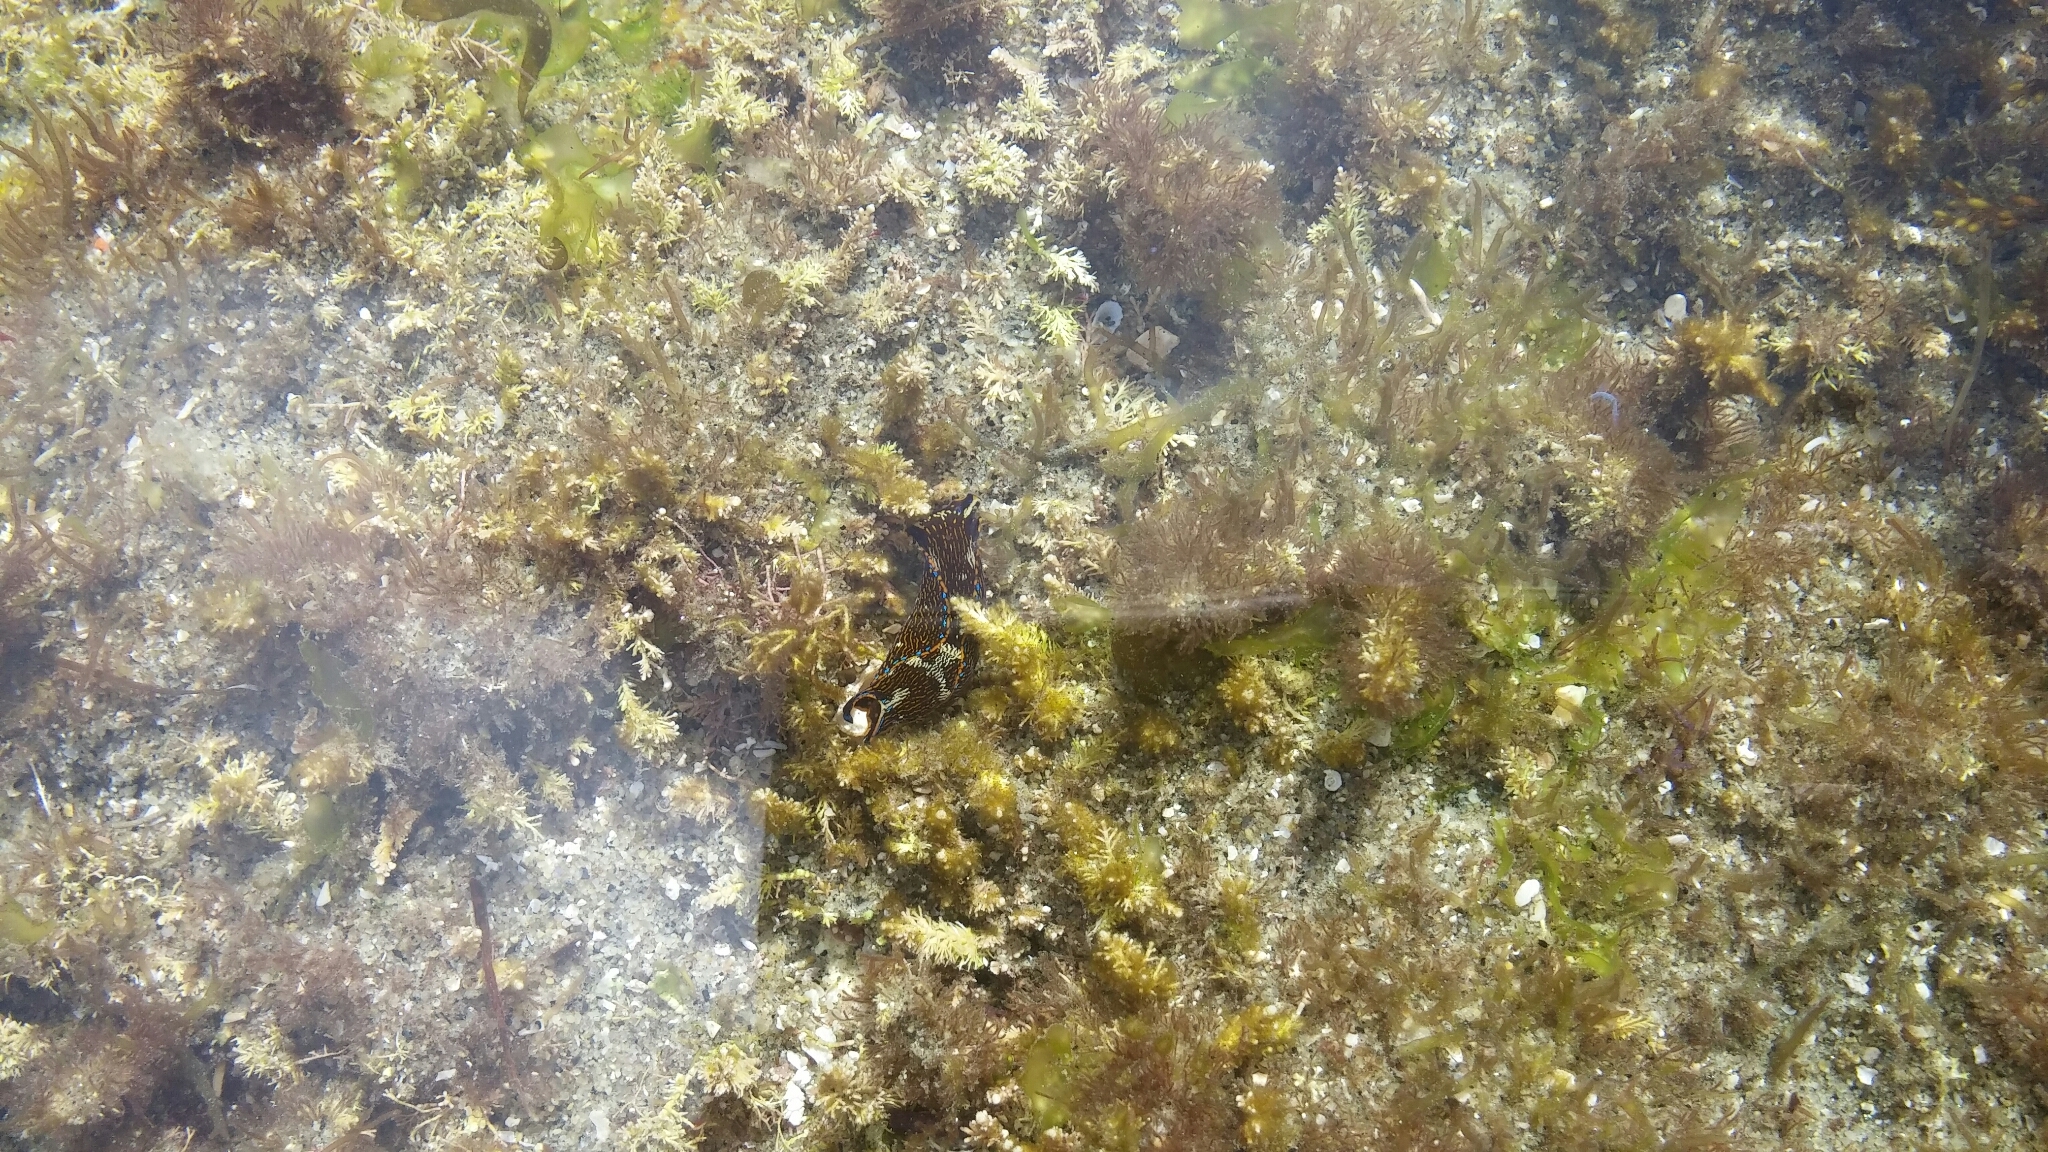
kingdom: Animalia
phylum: Mollusca
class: Gastropoda
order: Cephalaspidea
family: Aglajidae
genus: Navanax
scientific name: Navanax inermis
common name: California aglaja
